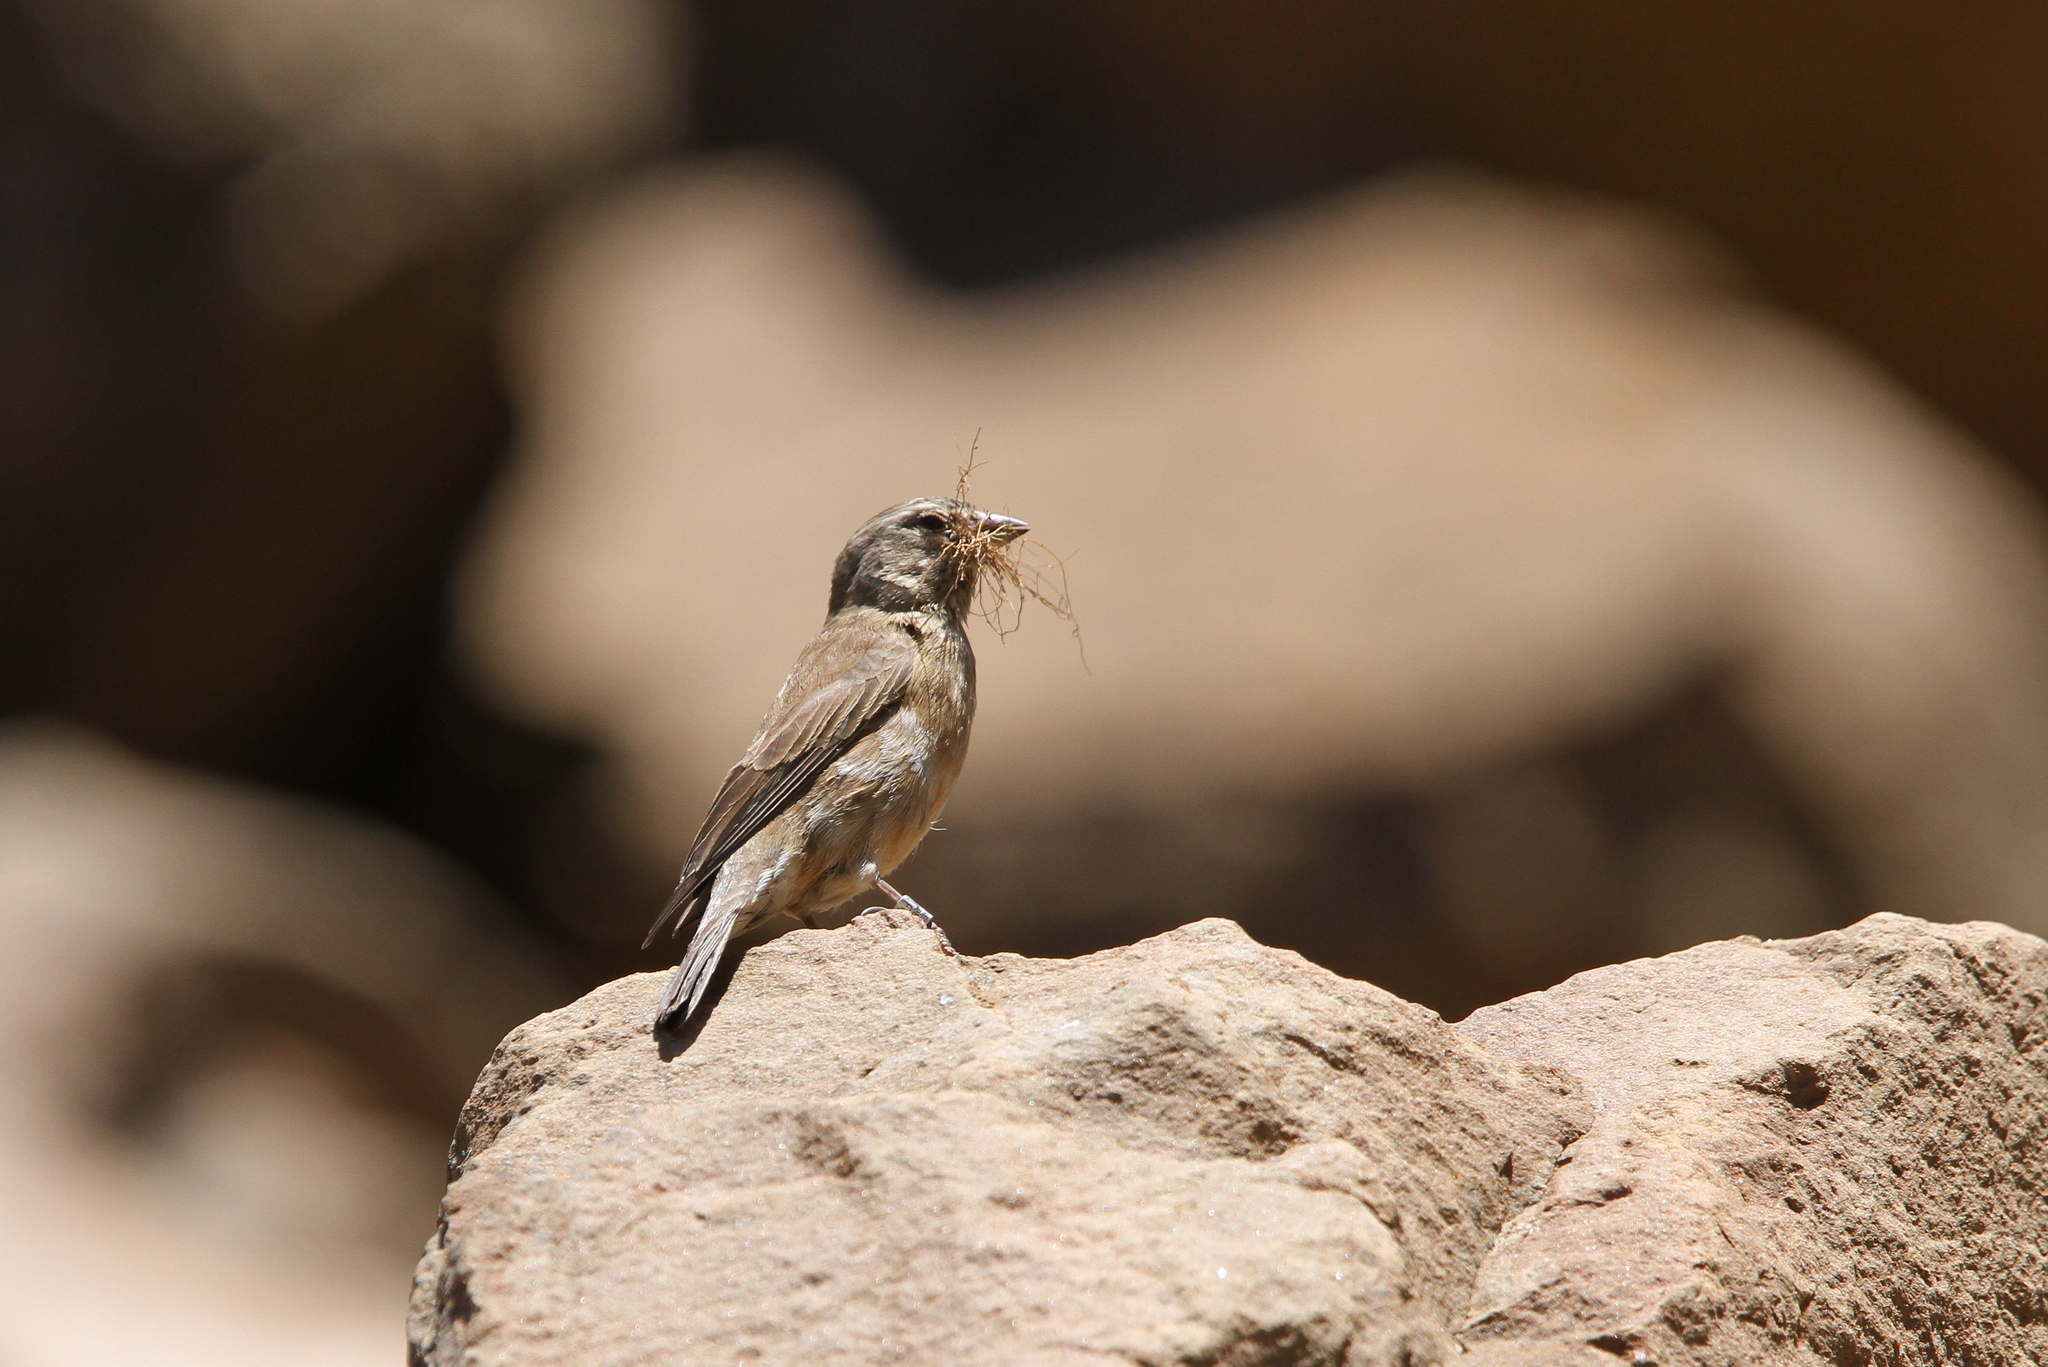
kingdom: Animalia
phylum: Chordata
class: Aves
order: Passeriformes
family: Fringillidae
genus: Crithagra
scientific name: Crithagra symonsi
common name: Drakensberg siskin
